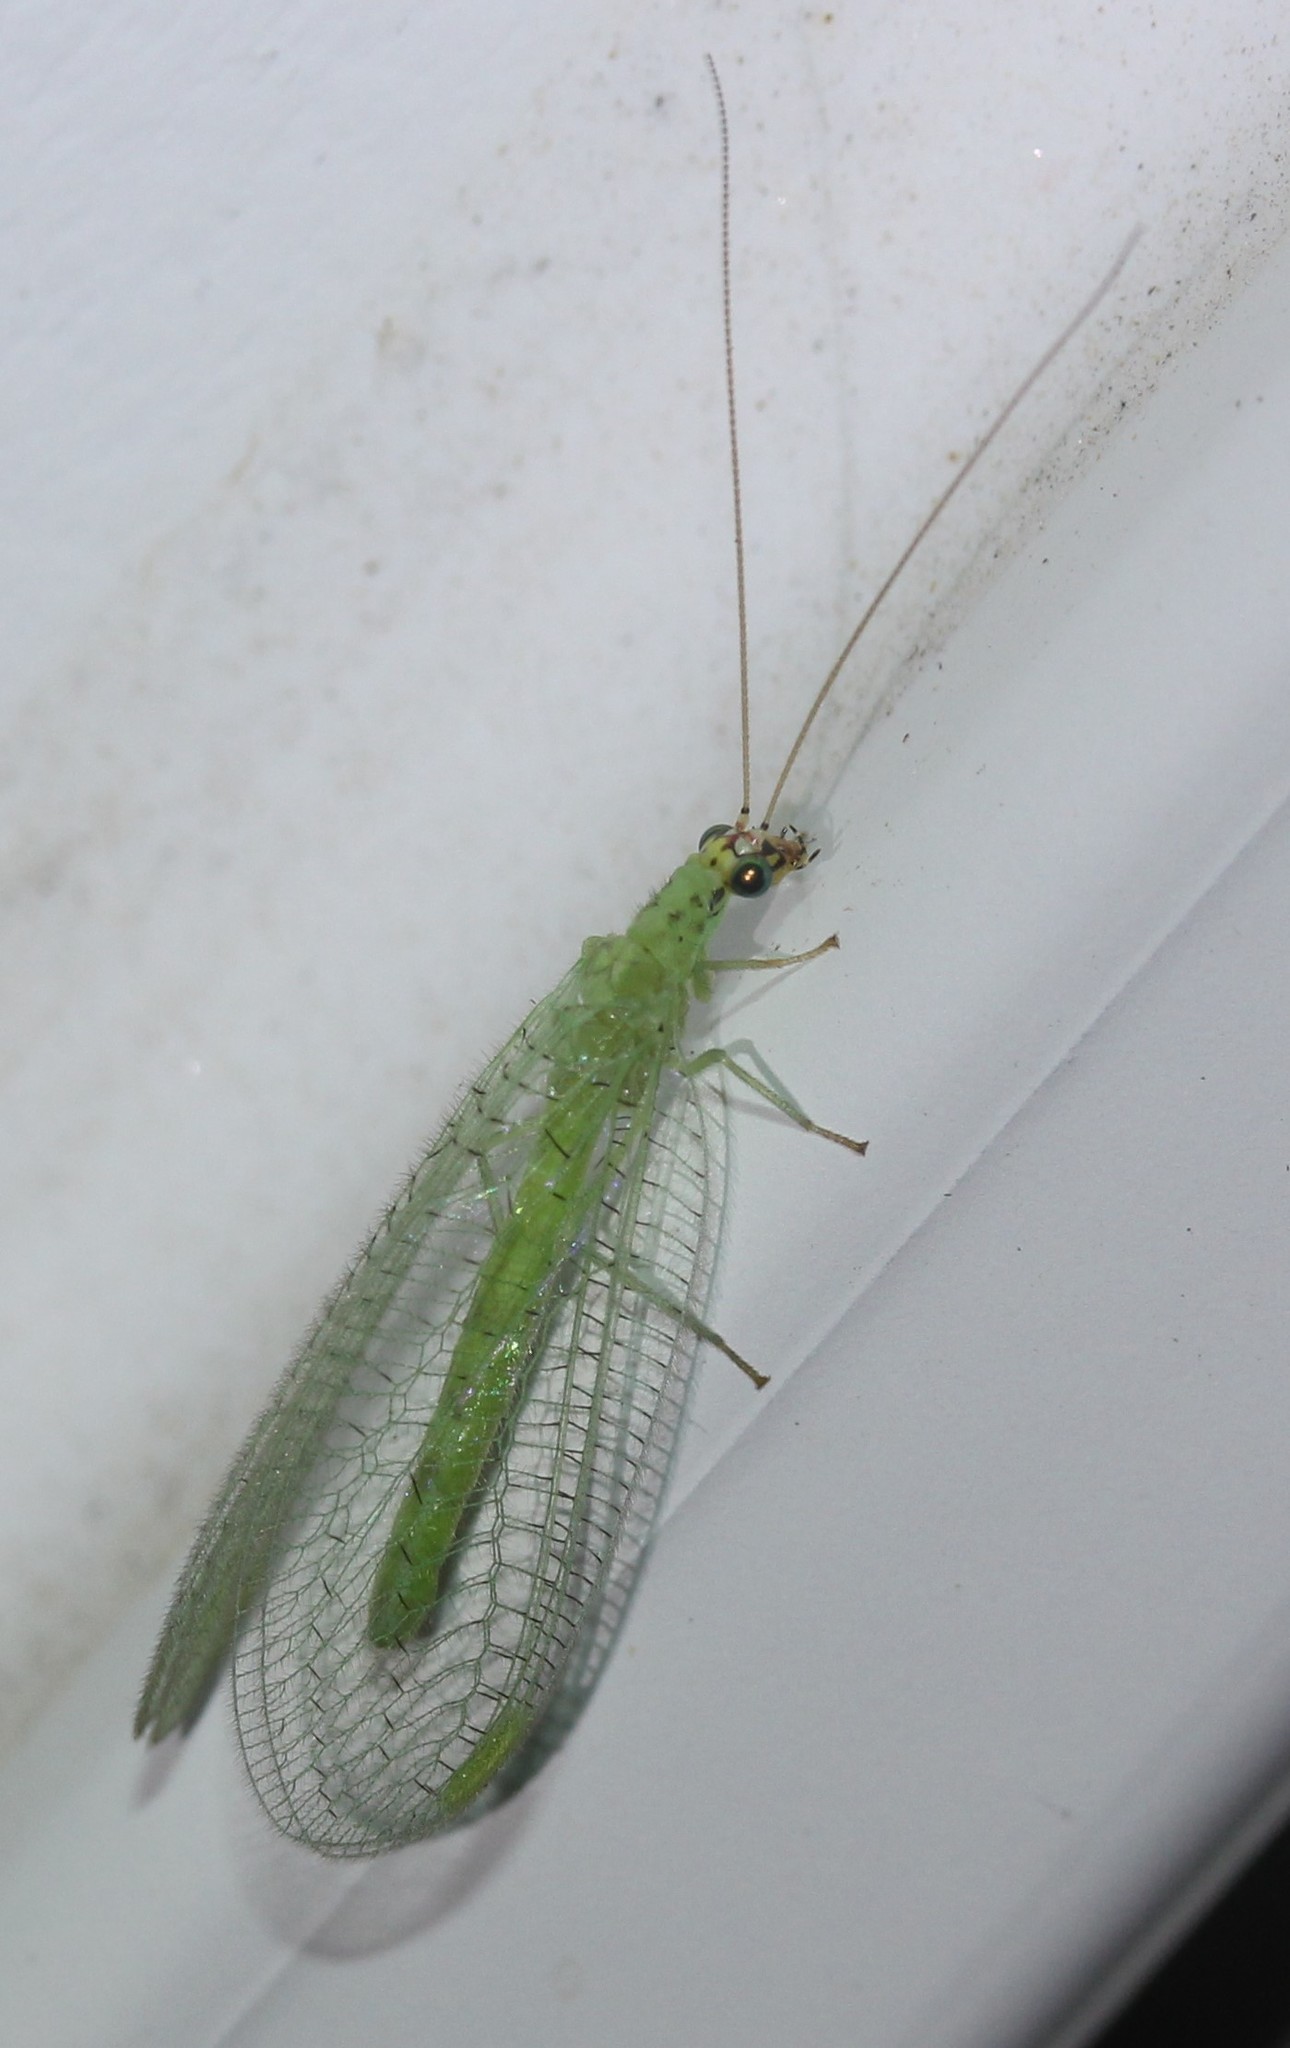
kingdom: Animalia
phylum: Arthropoda
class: Insecta
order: Neuroptera
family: Chrysopidae
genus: Chrysopa
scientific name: Chrysopa oculata
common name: Golden-eyed lacewing
